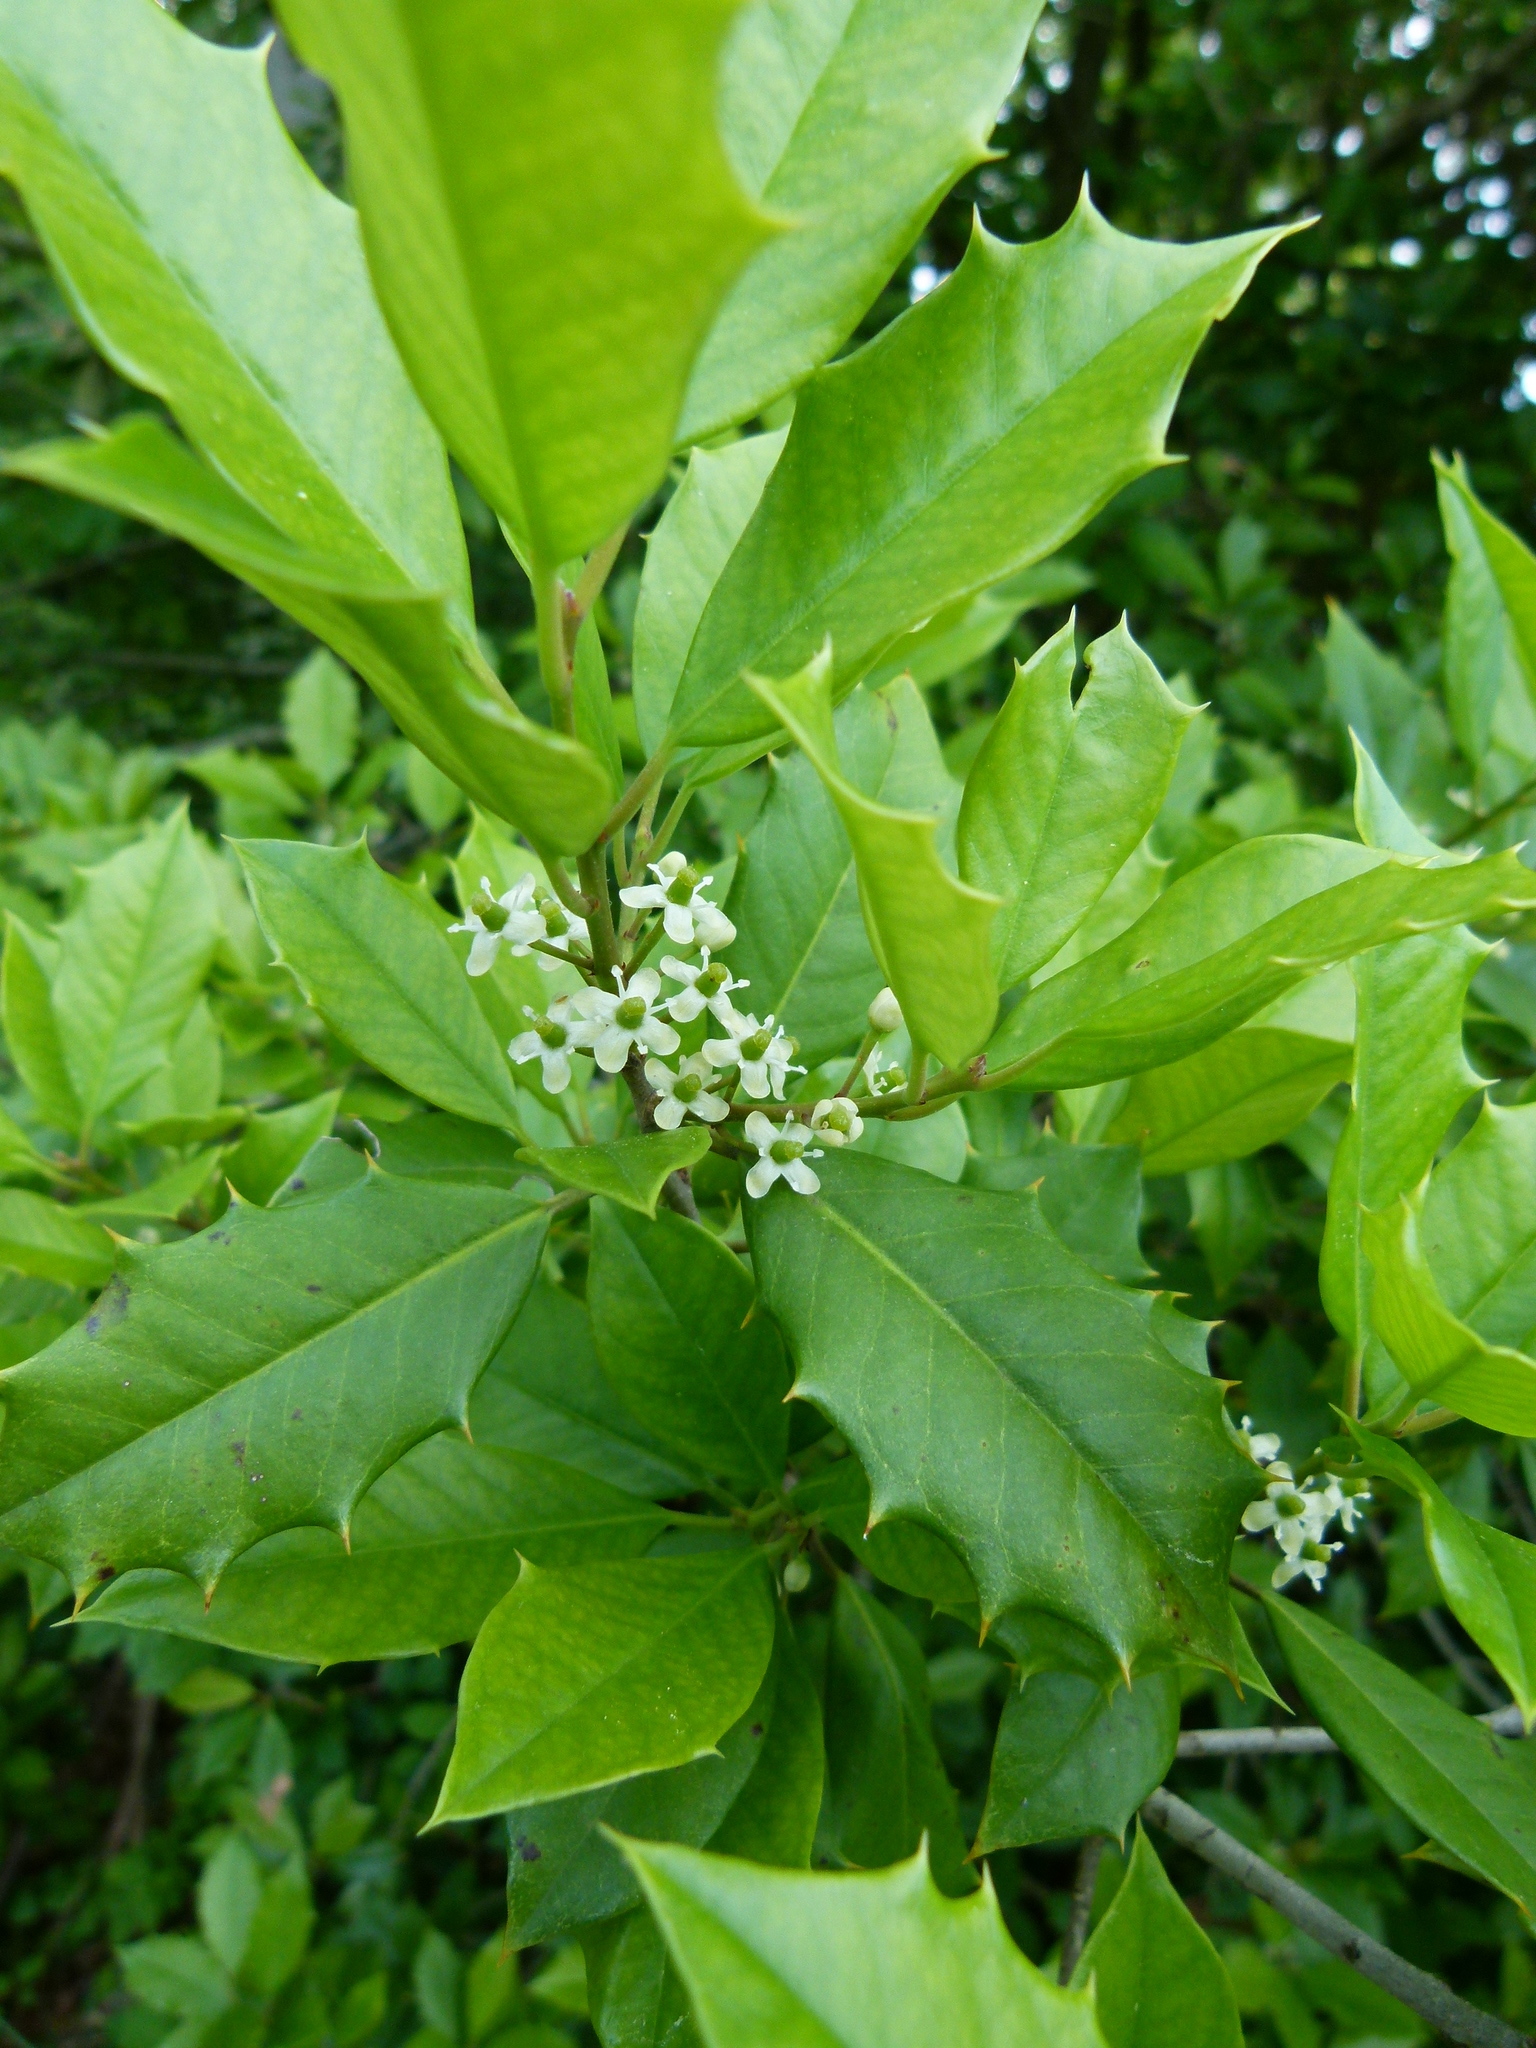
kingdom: Plantae
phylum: Tracheophyta
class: Magnoliopsida
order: Aquifoliales
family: Aquifoliaceae
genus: Ilex
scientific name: Ilex opaca
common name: American holly
